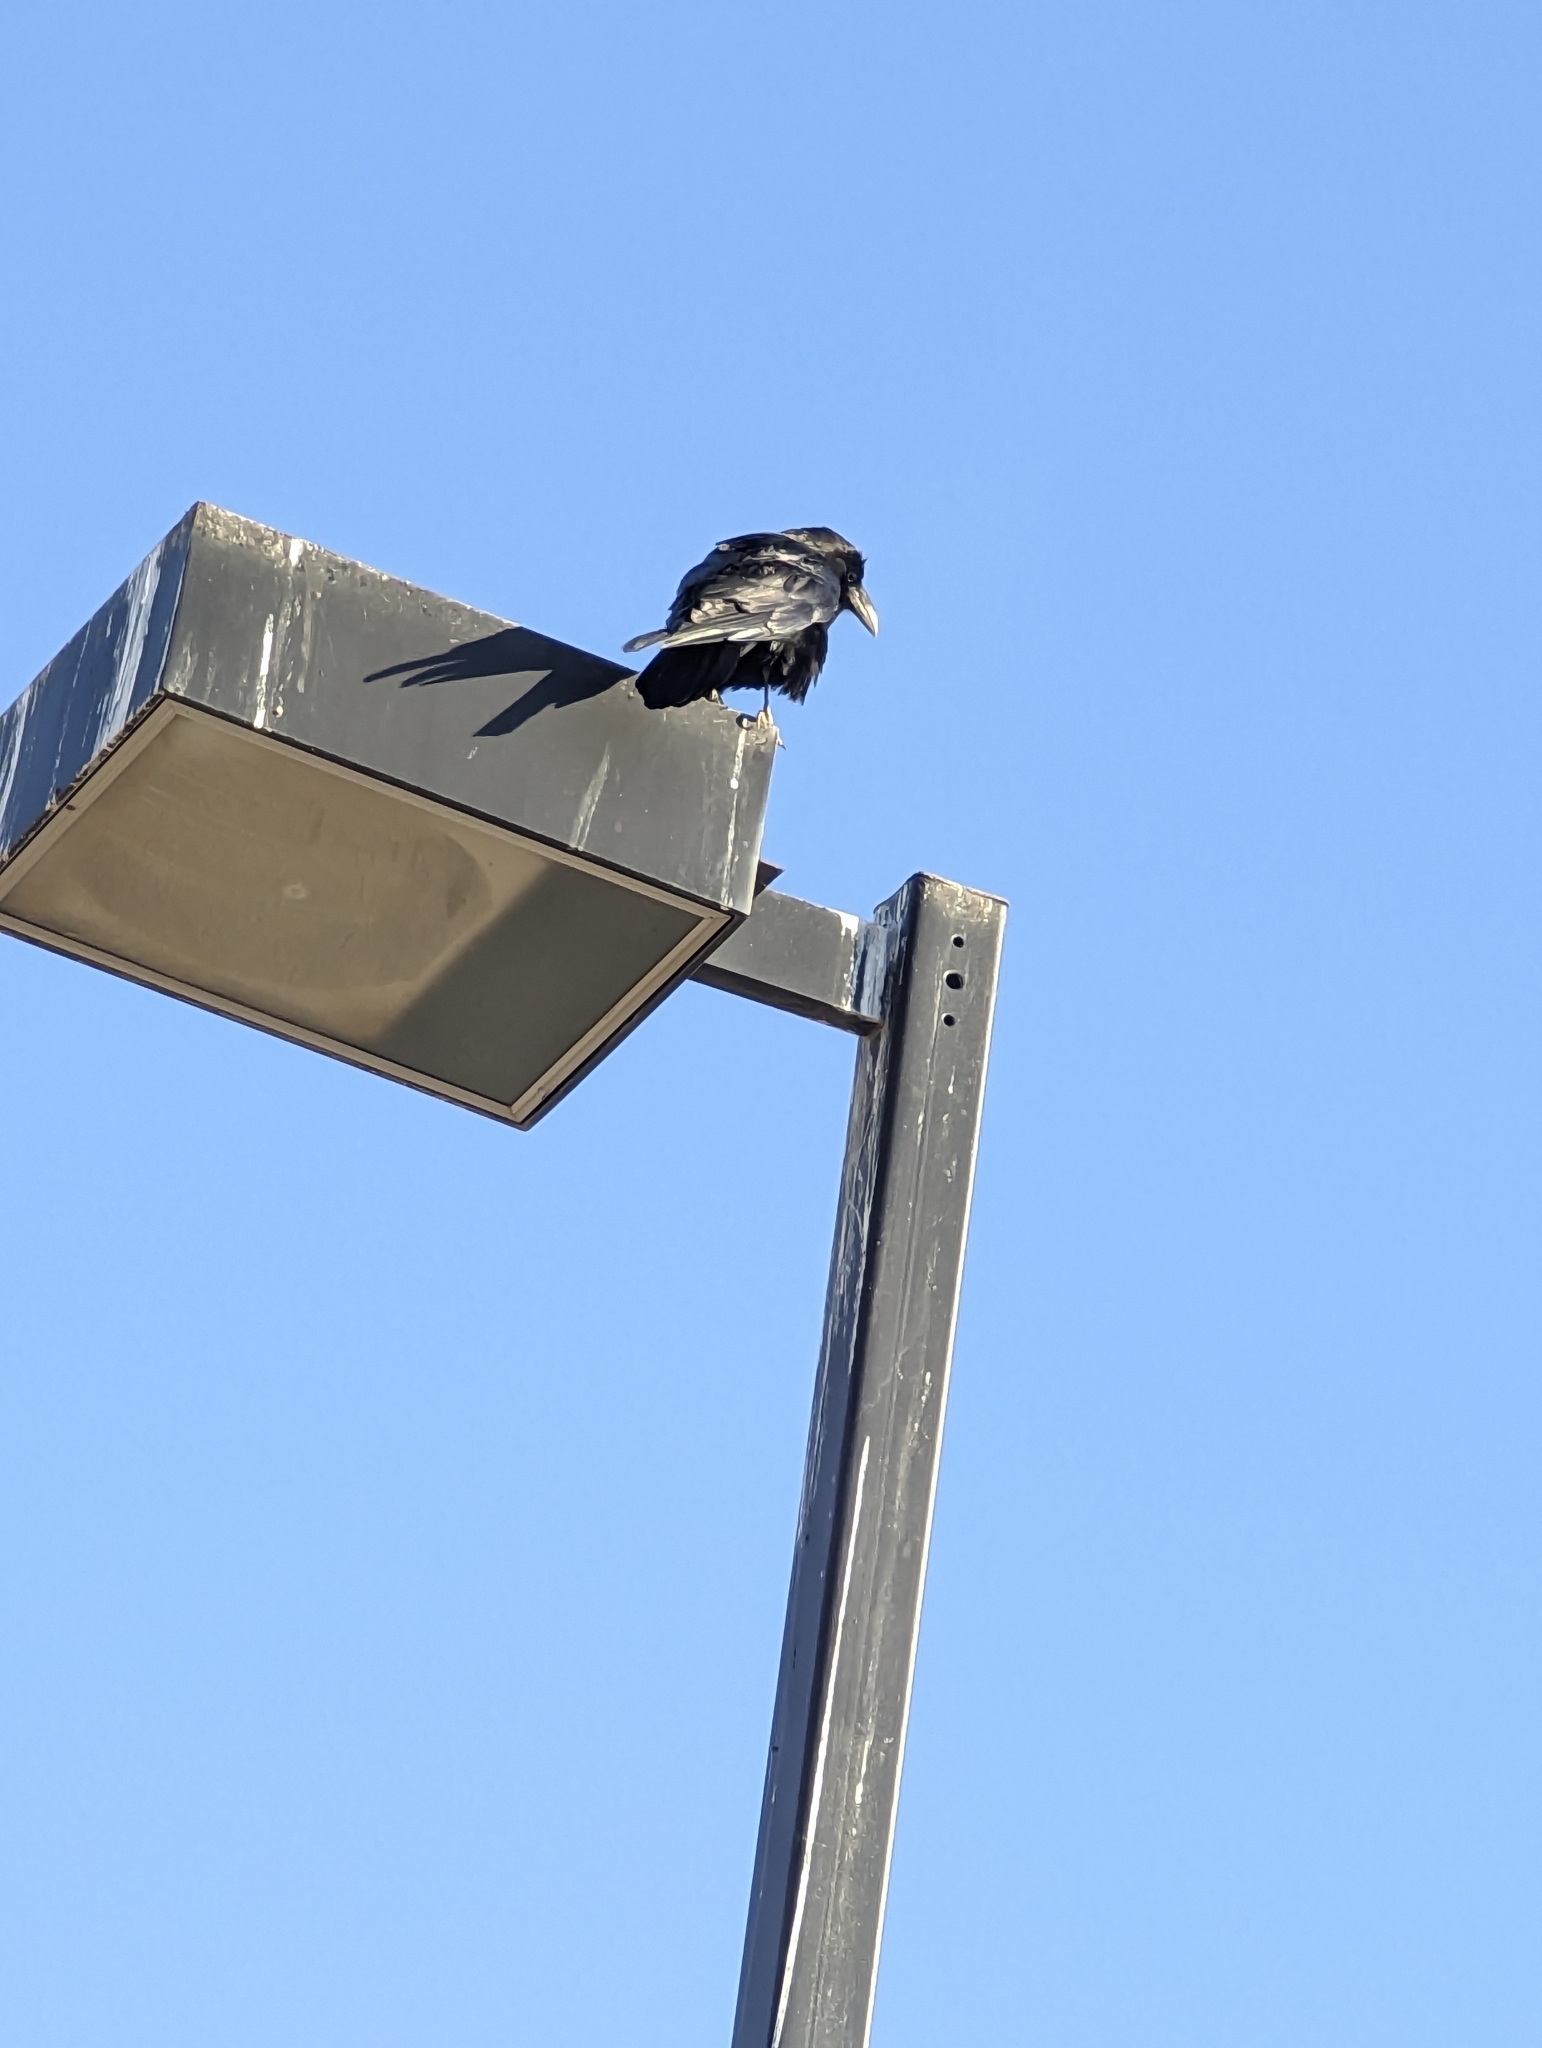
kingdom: Animalia
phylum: Chordata
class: Aves
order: Passeriformes
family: Corvidae
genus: Corvus
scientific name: Corvus corax
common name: Common raven
